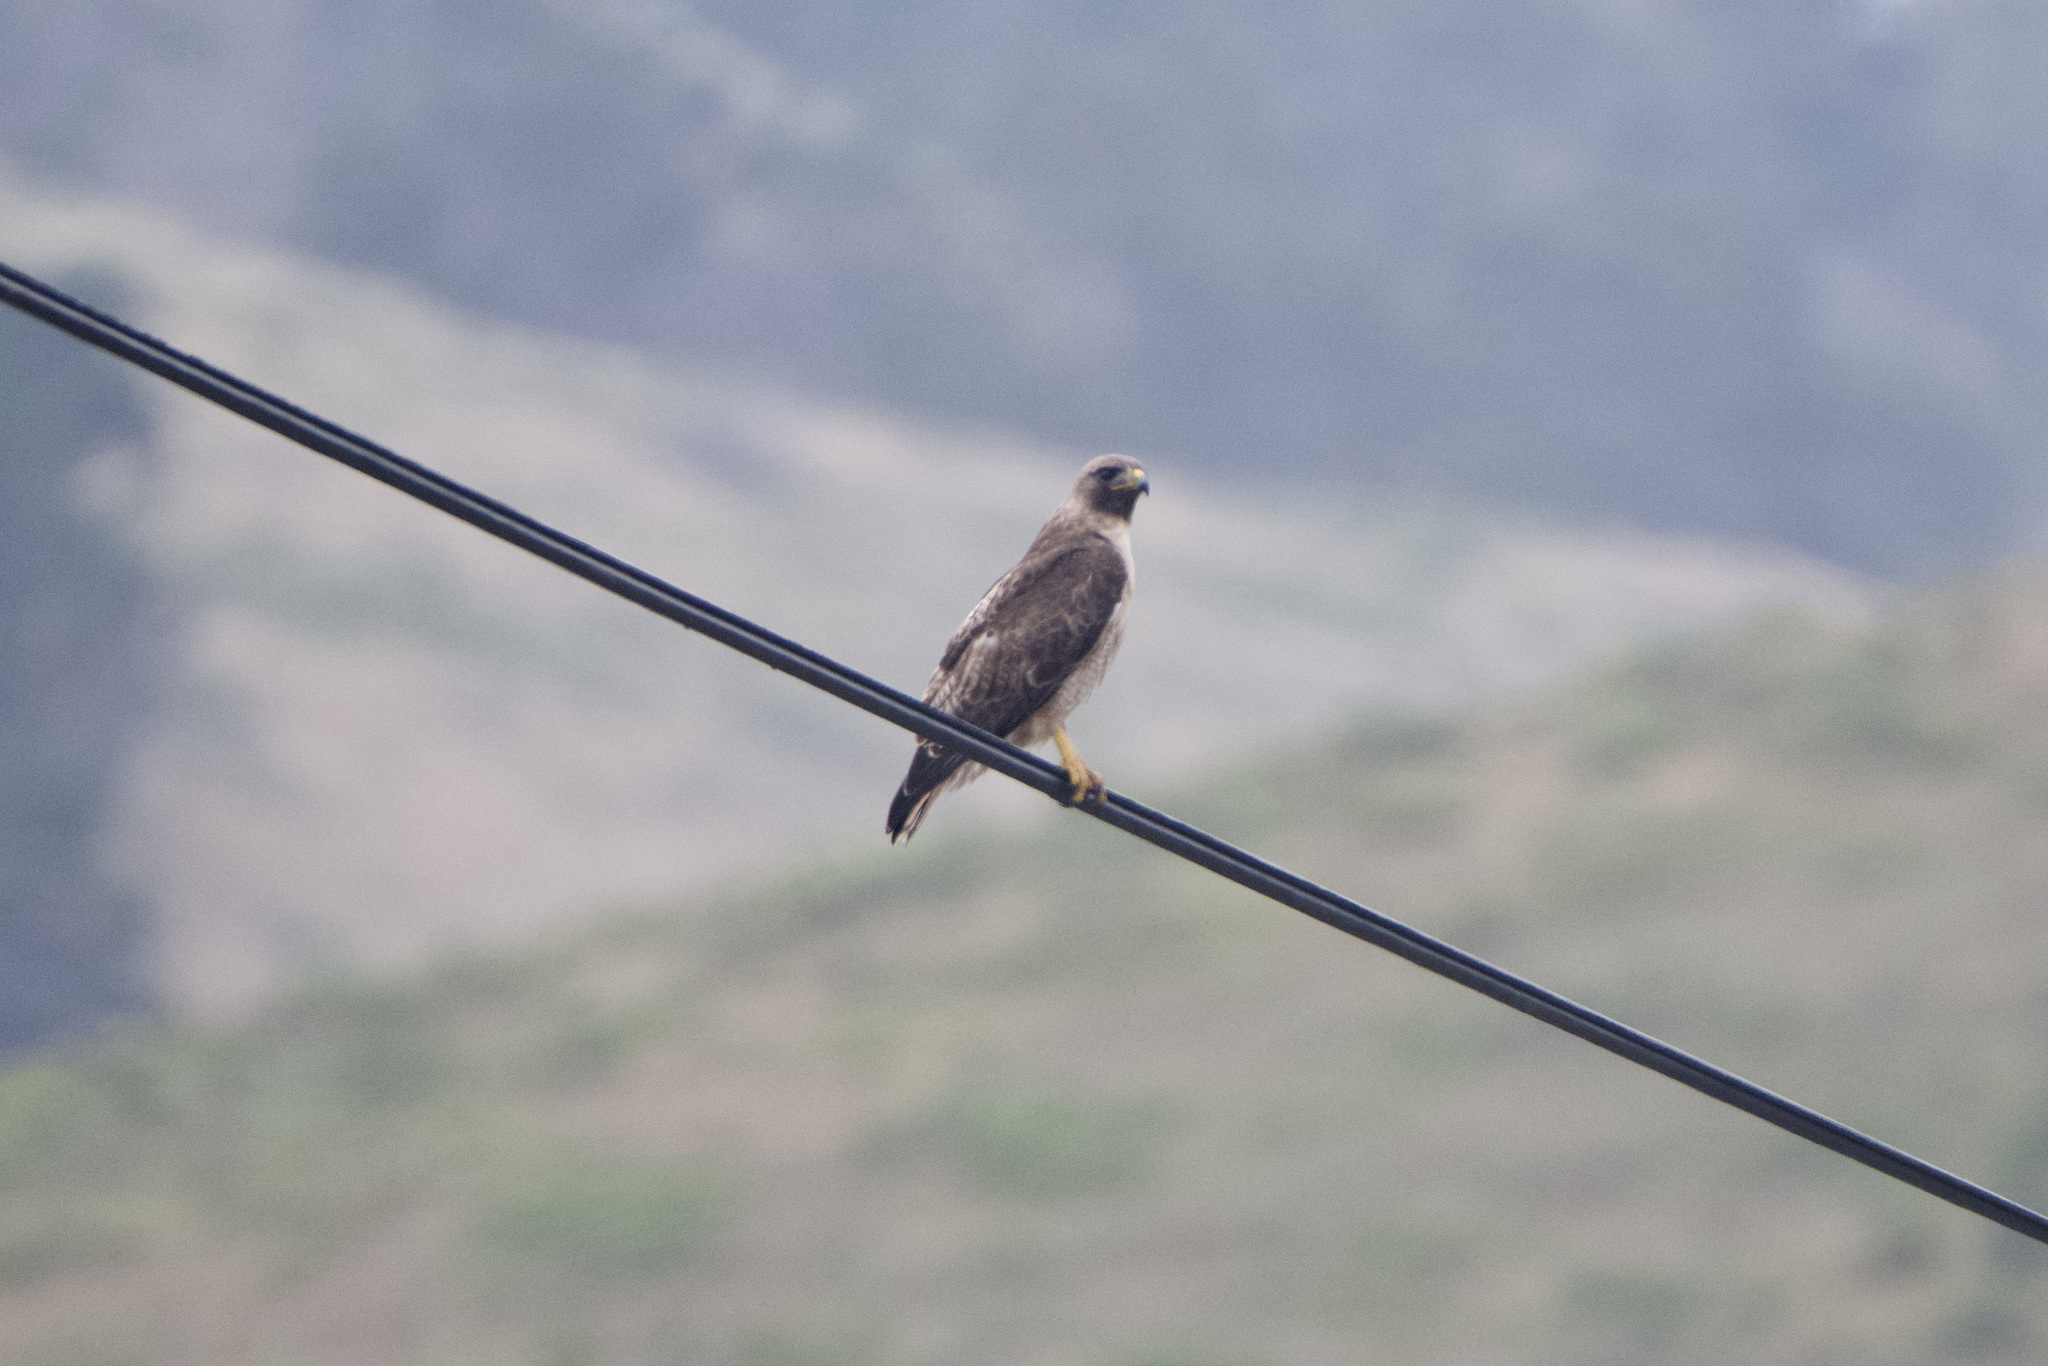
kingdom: Animalia
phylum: Chordata
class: Aves
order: Accipitriformes
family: Accipitridae
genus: Buteo
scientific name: Buteo jamaicensis
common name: Red-tailed hawk
